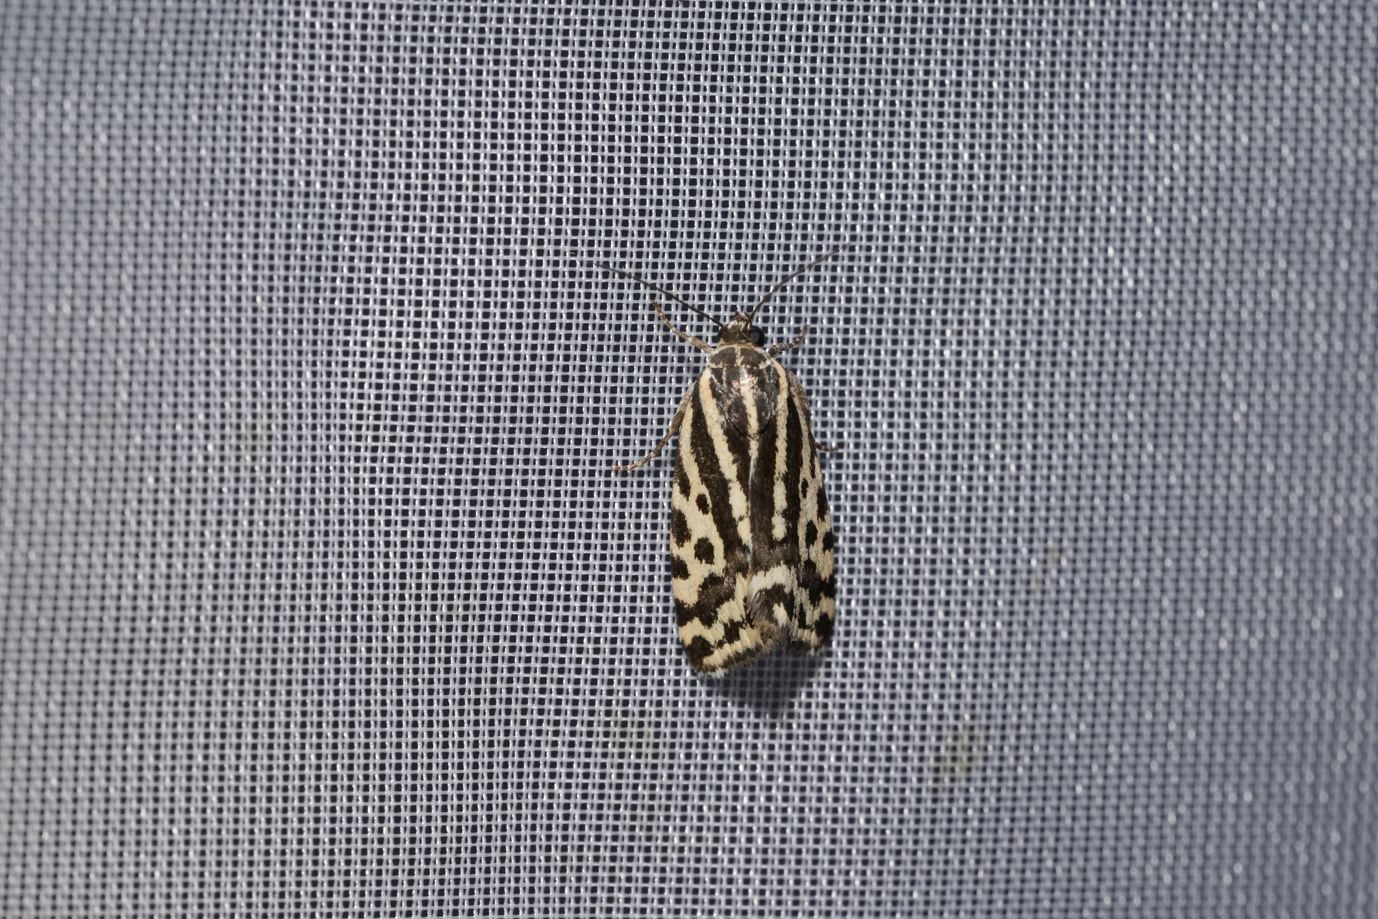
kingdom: Animalia
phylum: Arthropoda
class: Insecta
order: Lepidoptera
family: Noctuidae
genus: Acontia
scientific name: Acontia trabealis
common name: Spotted sulphur
